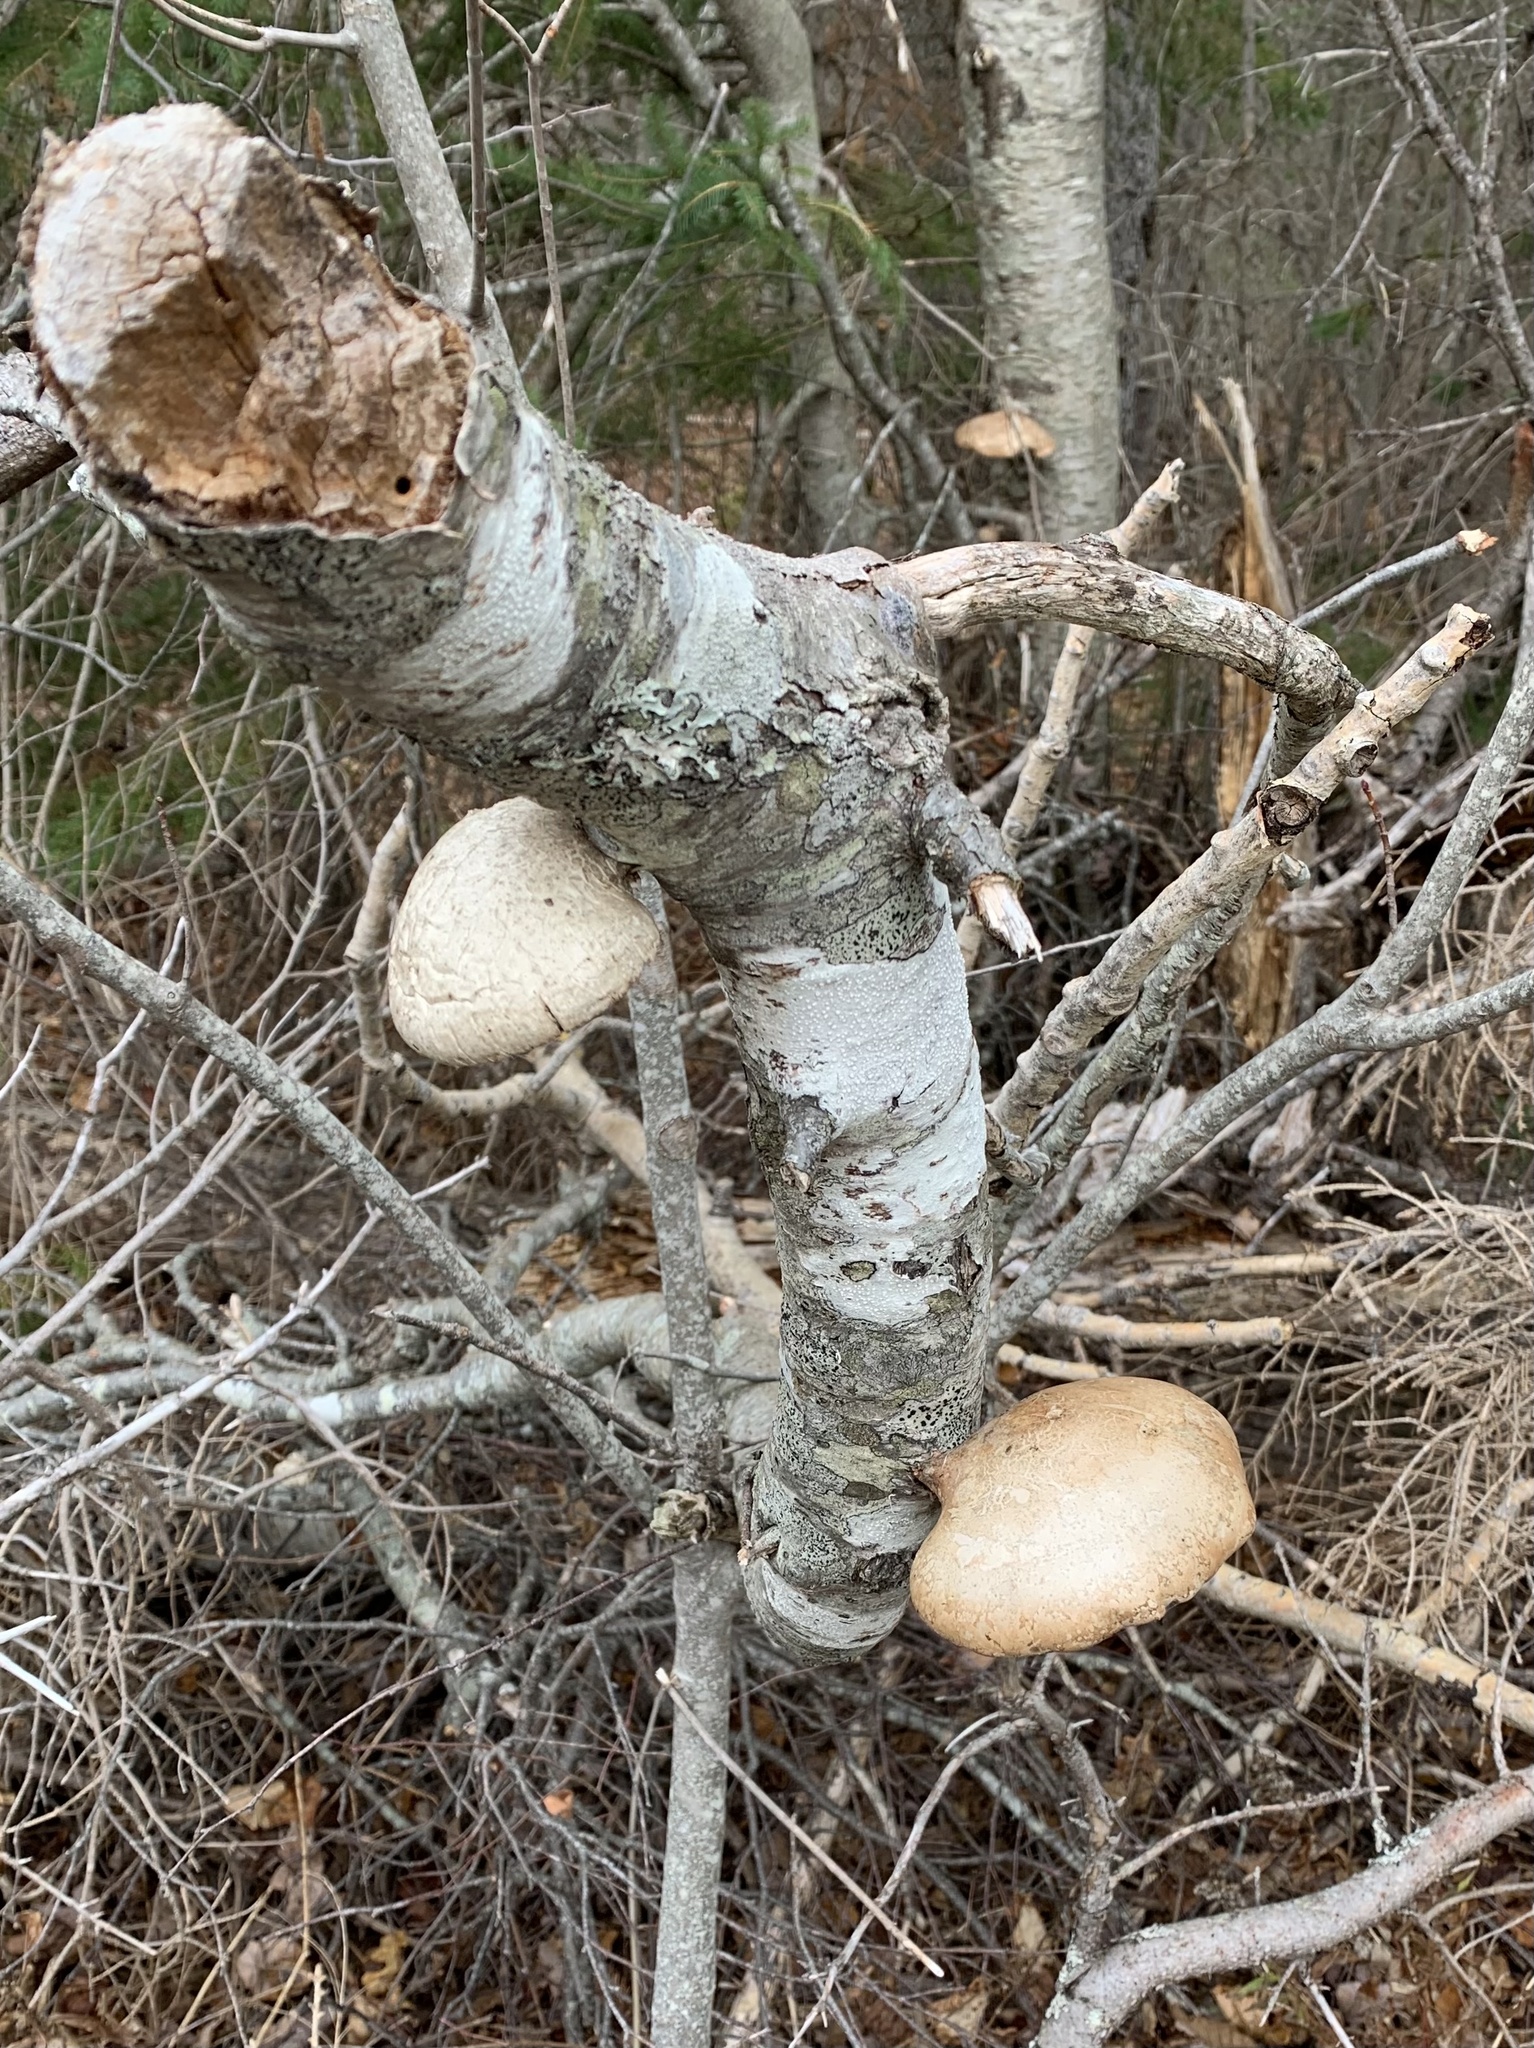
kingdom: Fungi
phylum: Basidiomycota
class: Agaricomycetes
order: Polyporales
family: Fomitopsidaceae
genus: Fomitopsis
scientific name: Fomitopsis betulina
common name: Birch polypore
